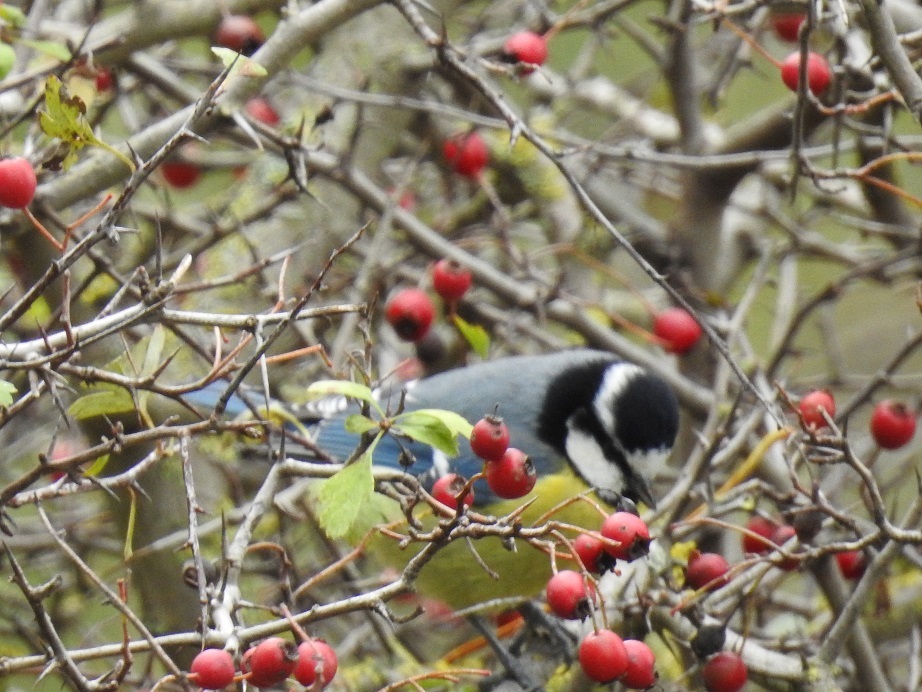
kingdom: Animalia
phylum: Chordata
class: Aves
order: Passeriformes
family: Paridae
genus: Cyanistes
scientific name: Cyanistes teneriffae
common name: African blue tit
